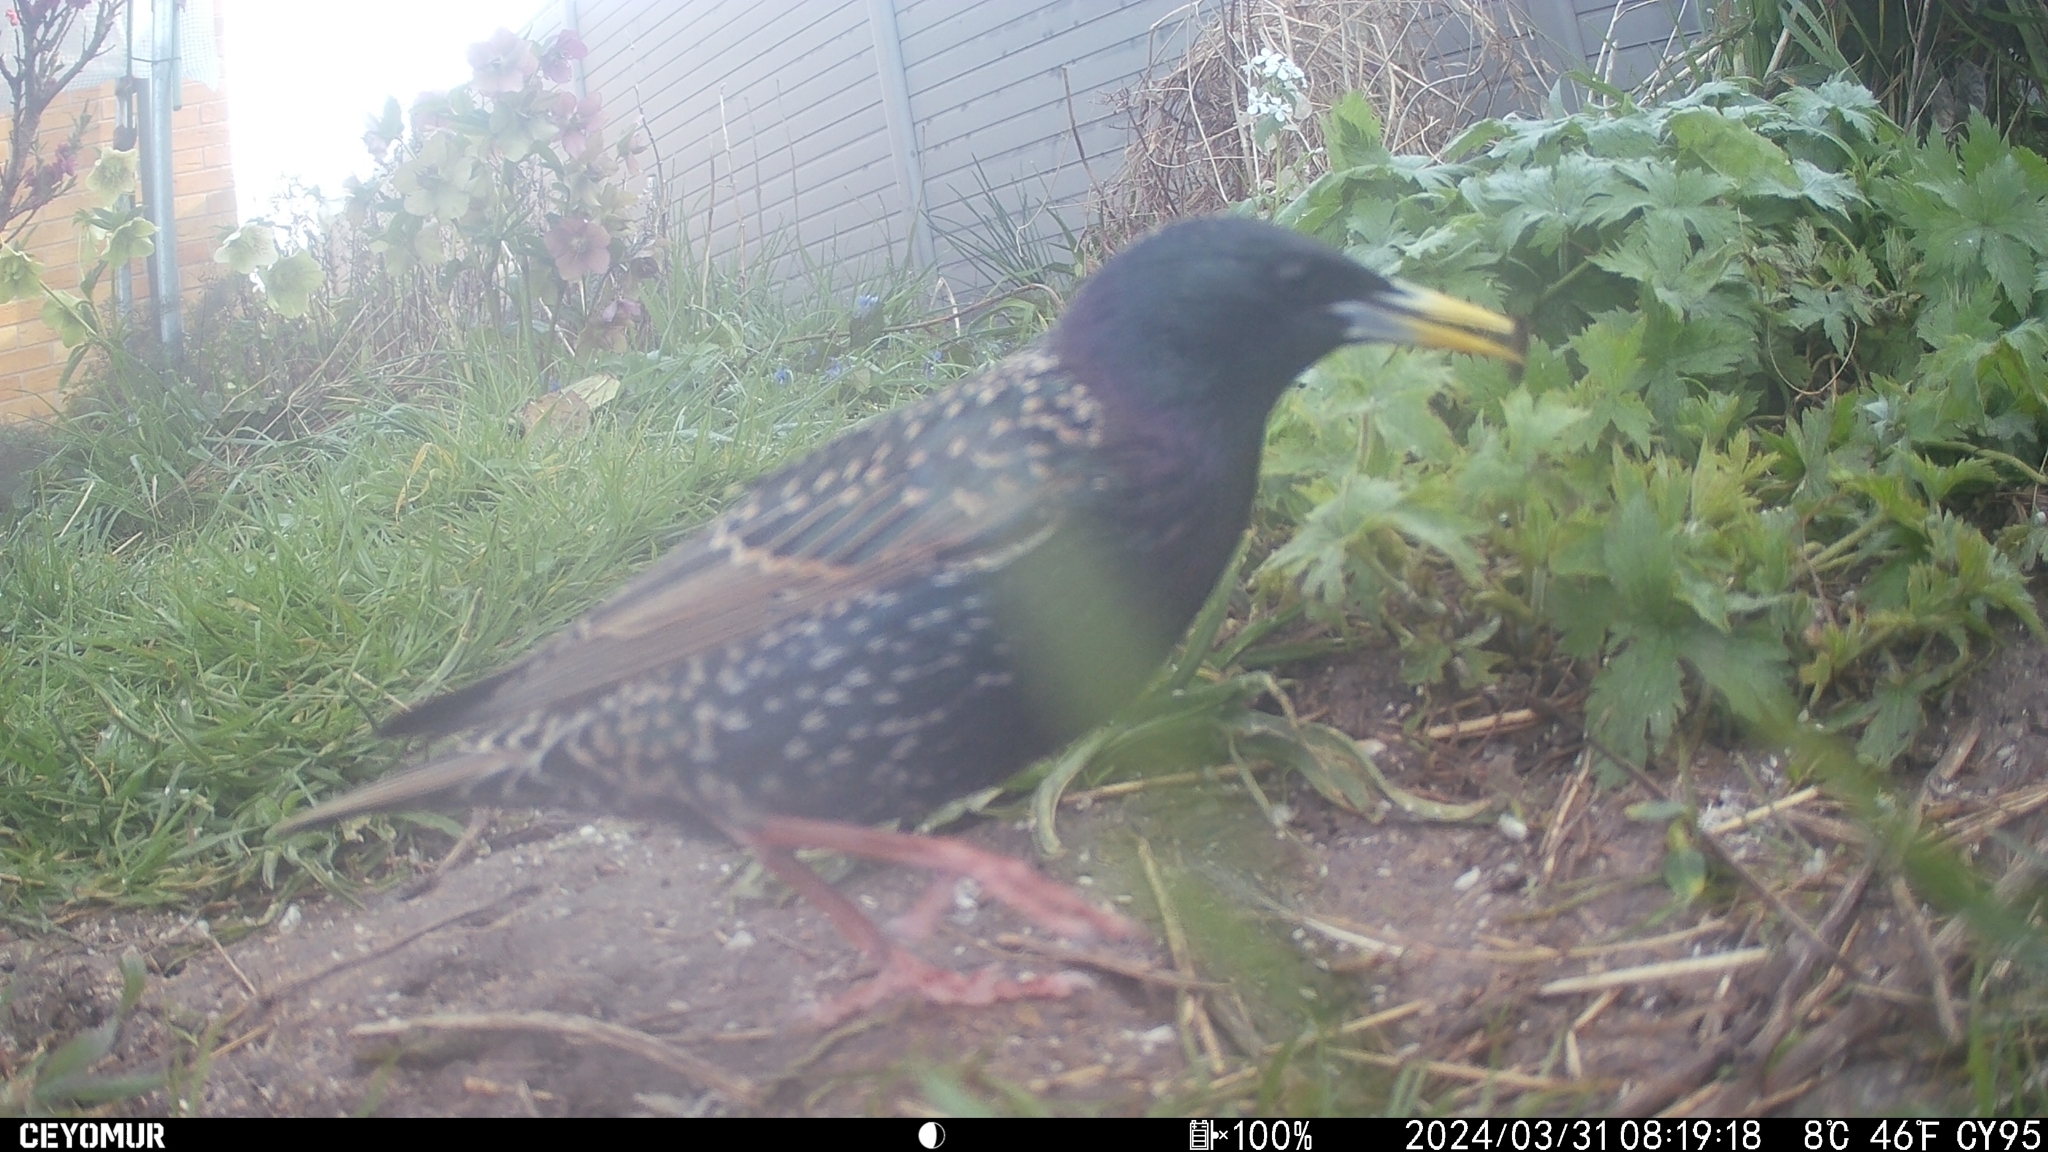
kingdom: Animalia
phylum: Chordata
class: Aves
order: Passeriformes
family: Sturnidae
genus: Sturnus
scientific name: Sturnus vulgaris
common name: Common starling
